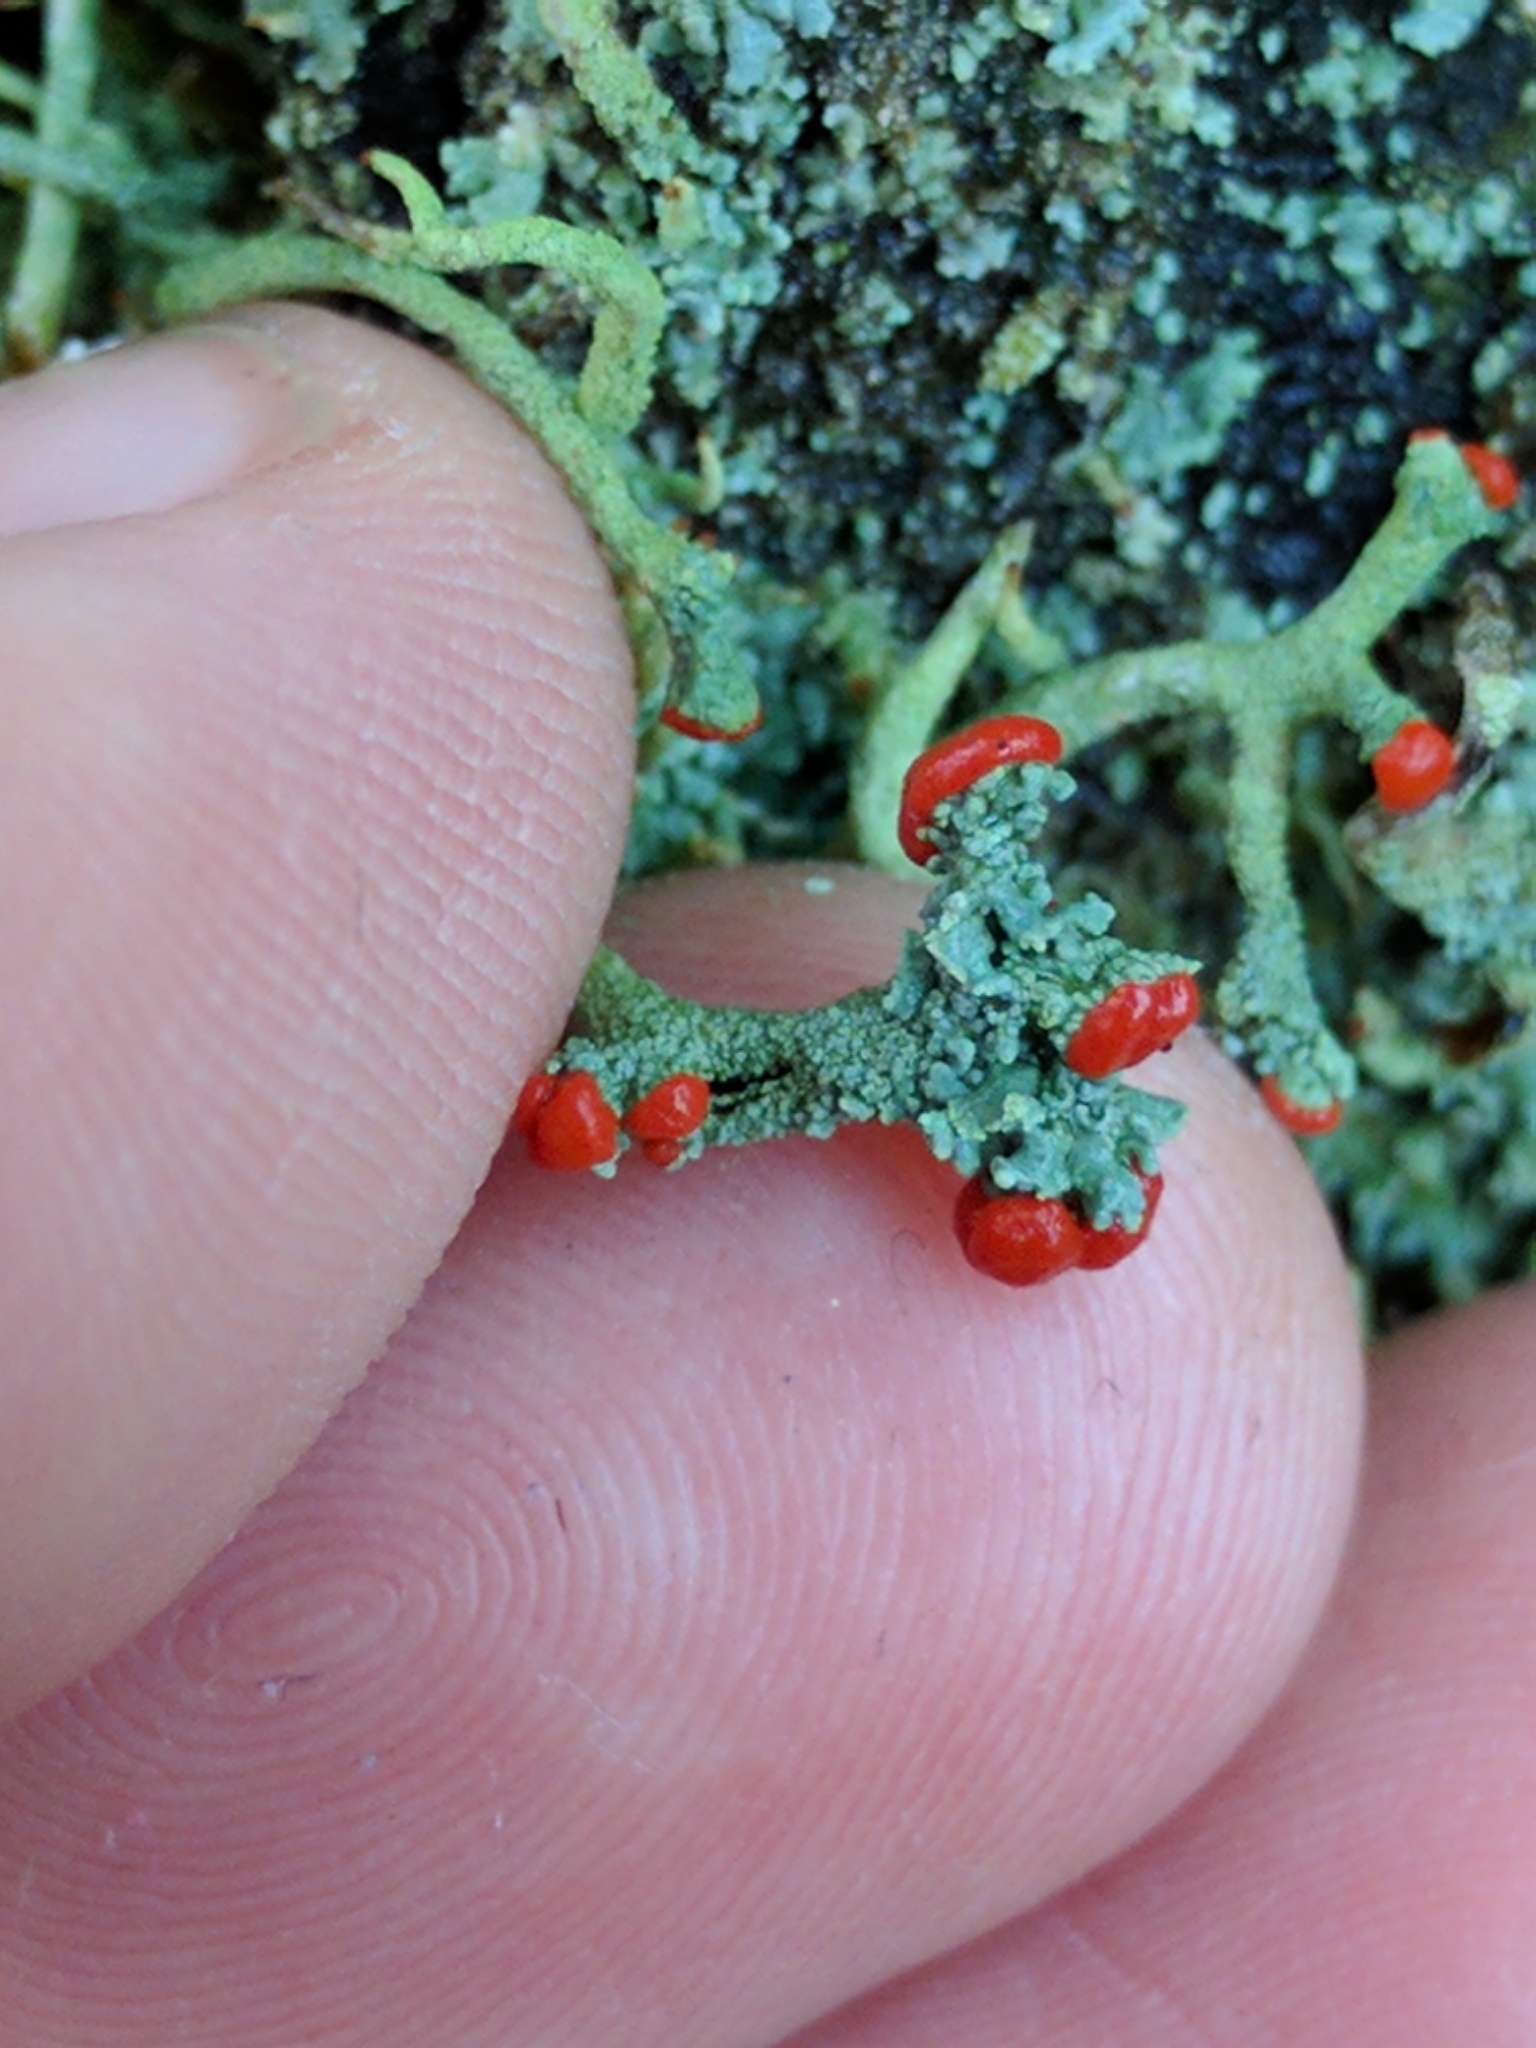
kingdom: Fungi
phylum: Ascomycota
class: Lecanoromycetes
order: Lecanorales
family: Cladoniaceae
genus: Cladonia
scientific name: Cladonia macilenta
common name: Lipstick powderhorn
